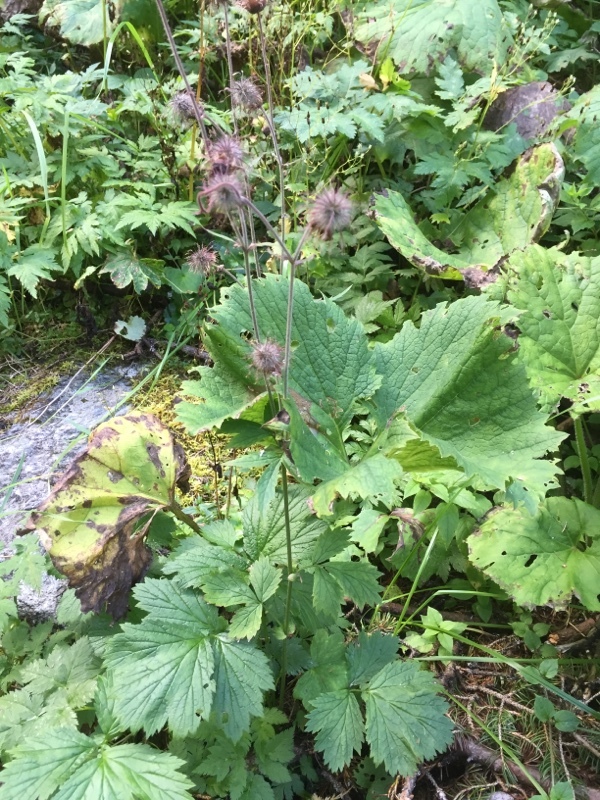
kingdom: Plantae
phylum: Tracheophyta
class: Magnoliopsida
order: Rosales
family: Rosaceae
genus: Geum
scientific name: Geum rivale
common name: Water avens
